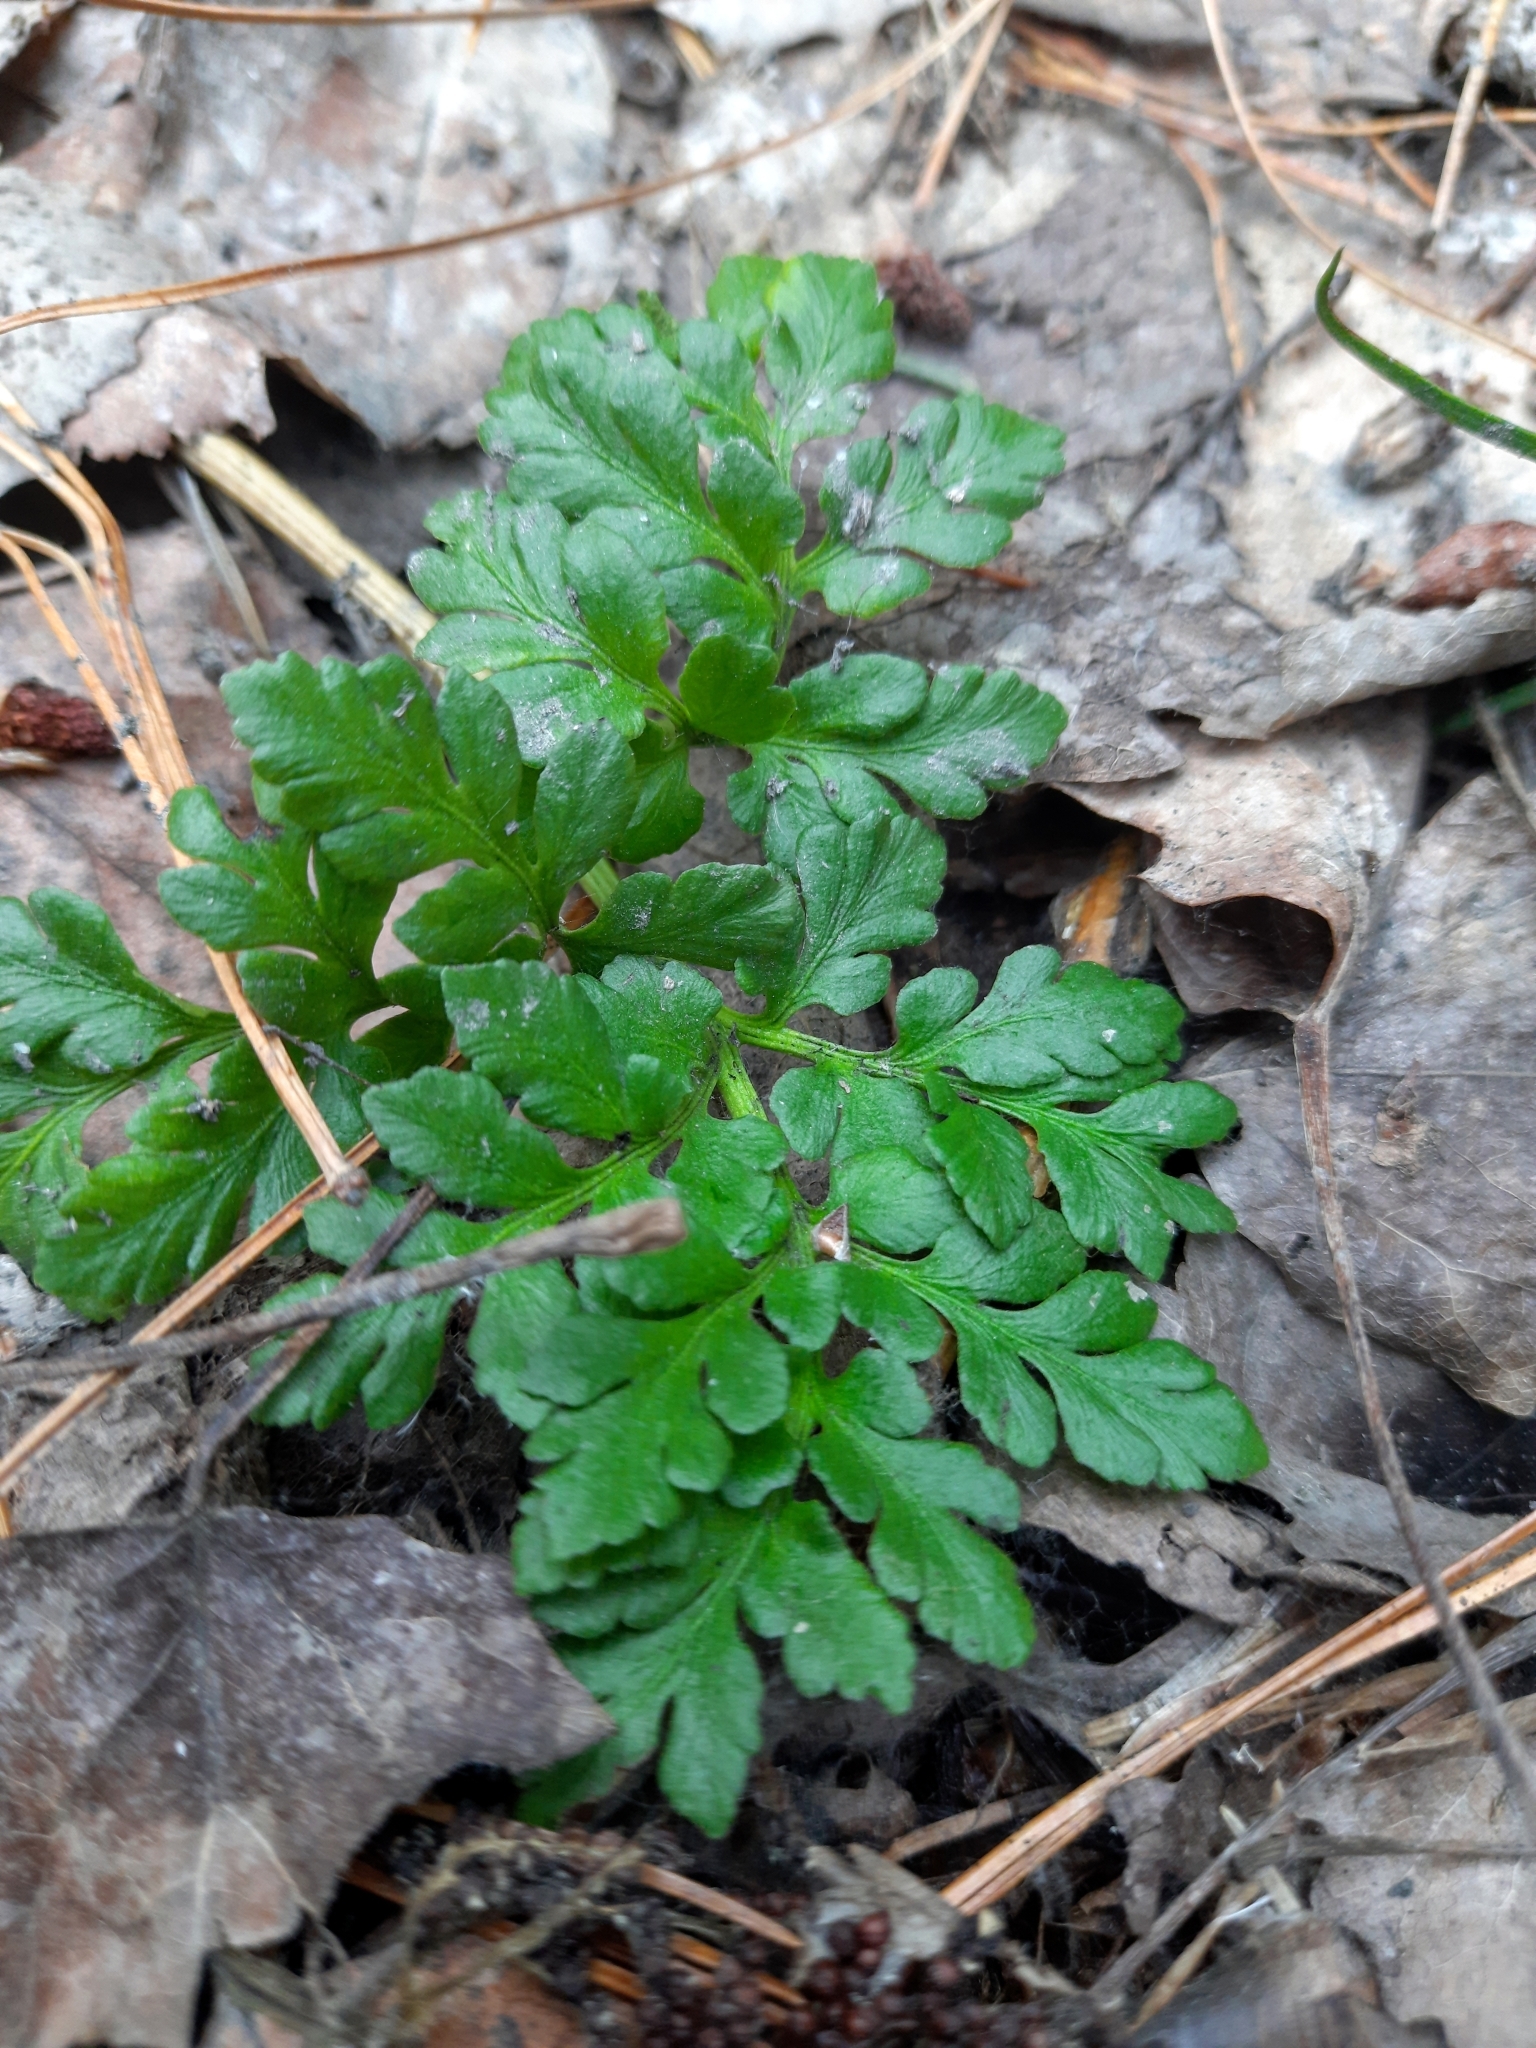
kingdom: Plantae
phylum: Tracheophyta
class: Polypodiopsida
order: Ophioglossales
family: Ophioglossaceae
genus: Sceptridium
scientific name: Sceptridium multifidum
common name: Leathery grape fern
